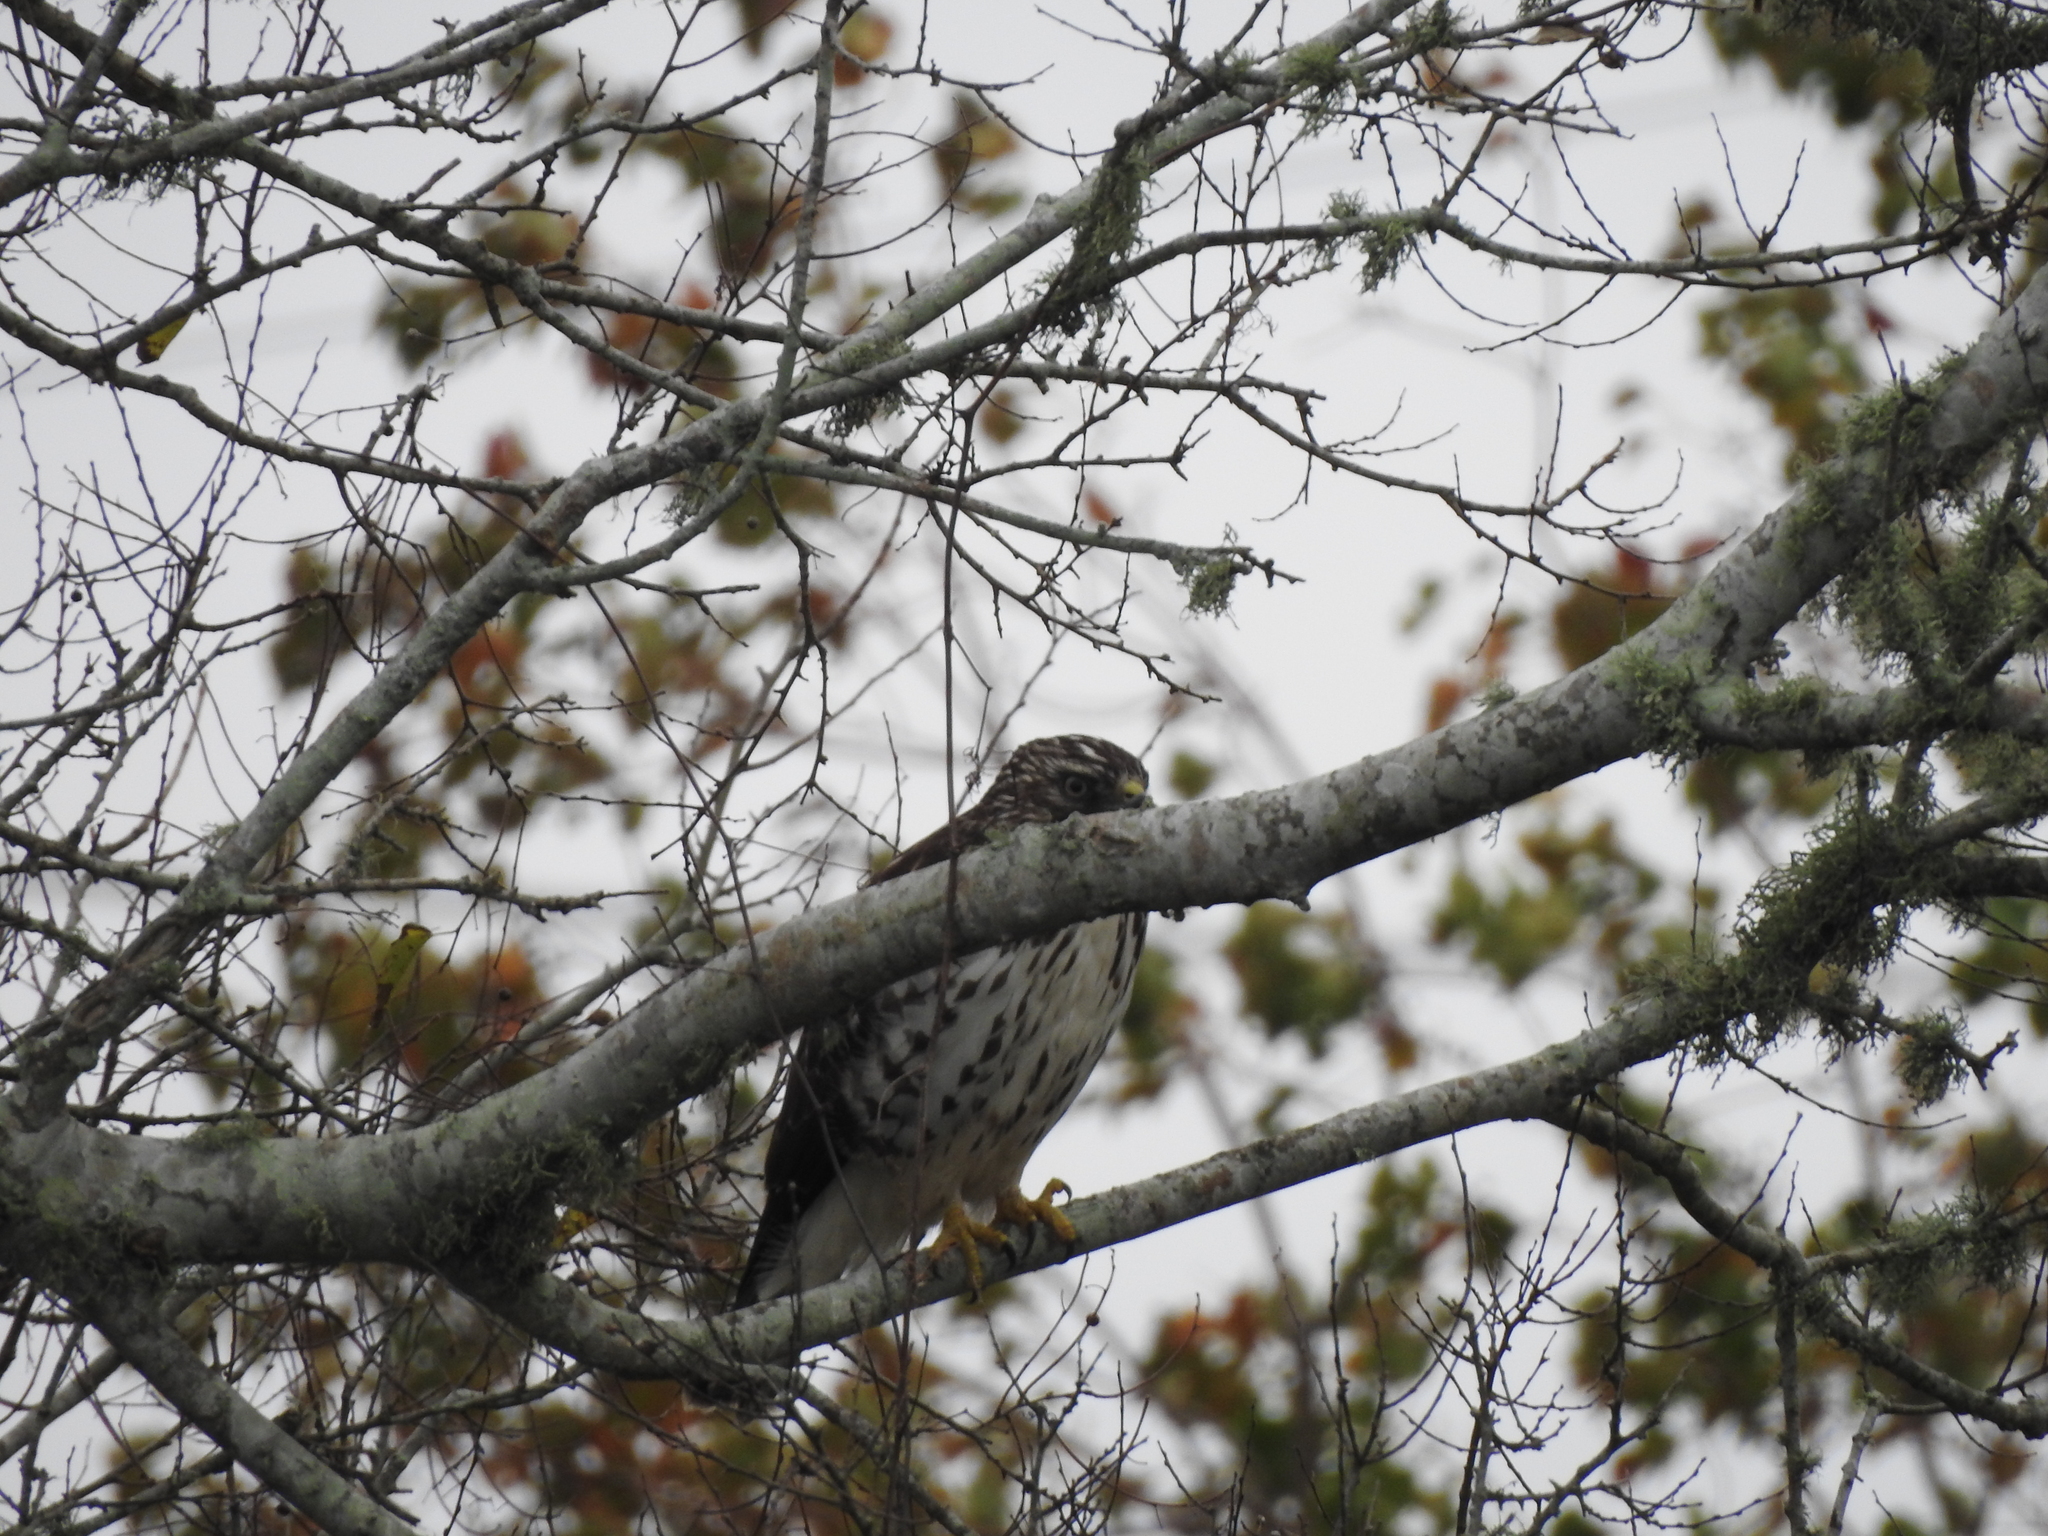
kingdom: Animalia
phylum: Chordata
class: Aves
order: Accipitriformes
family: Accipitridae
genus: Buteo
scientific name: Buteo platypterus
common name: Broad-winged hawk
